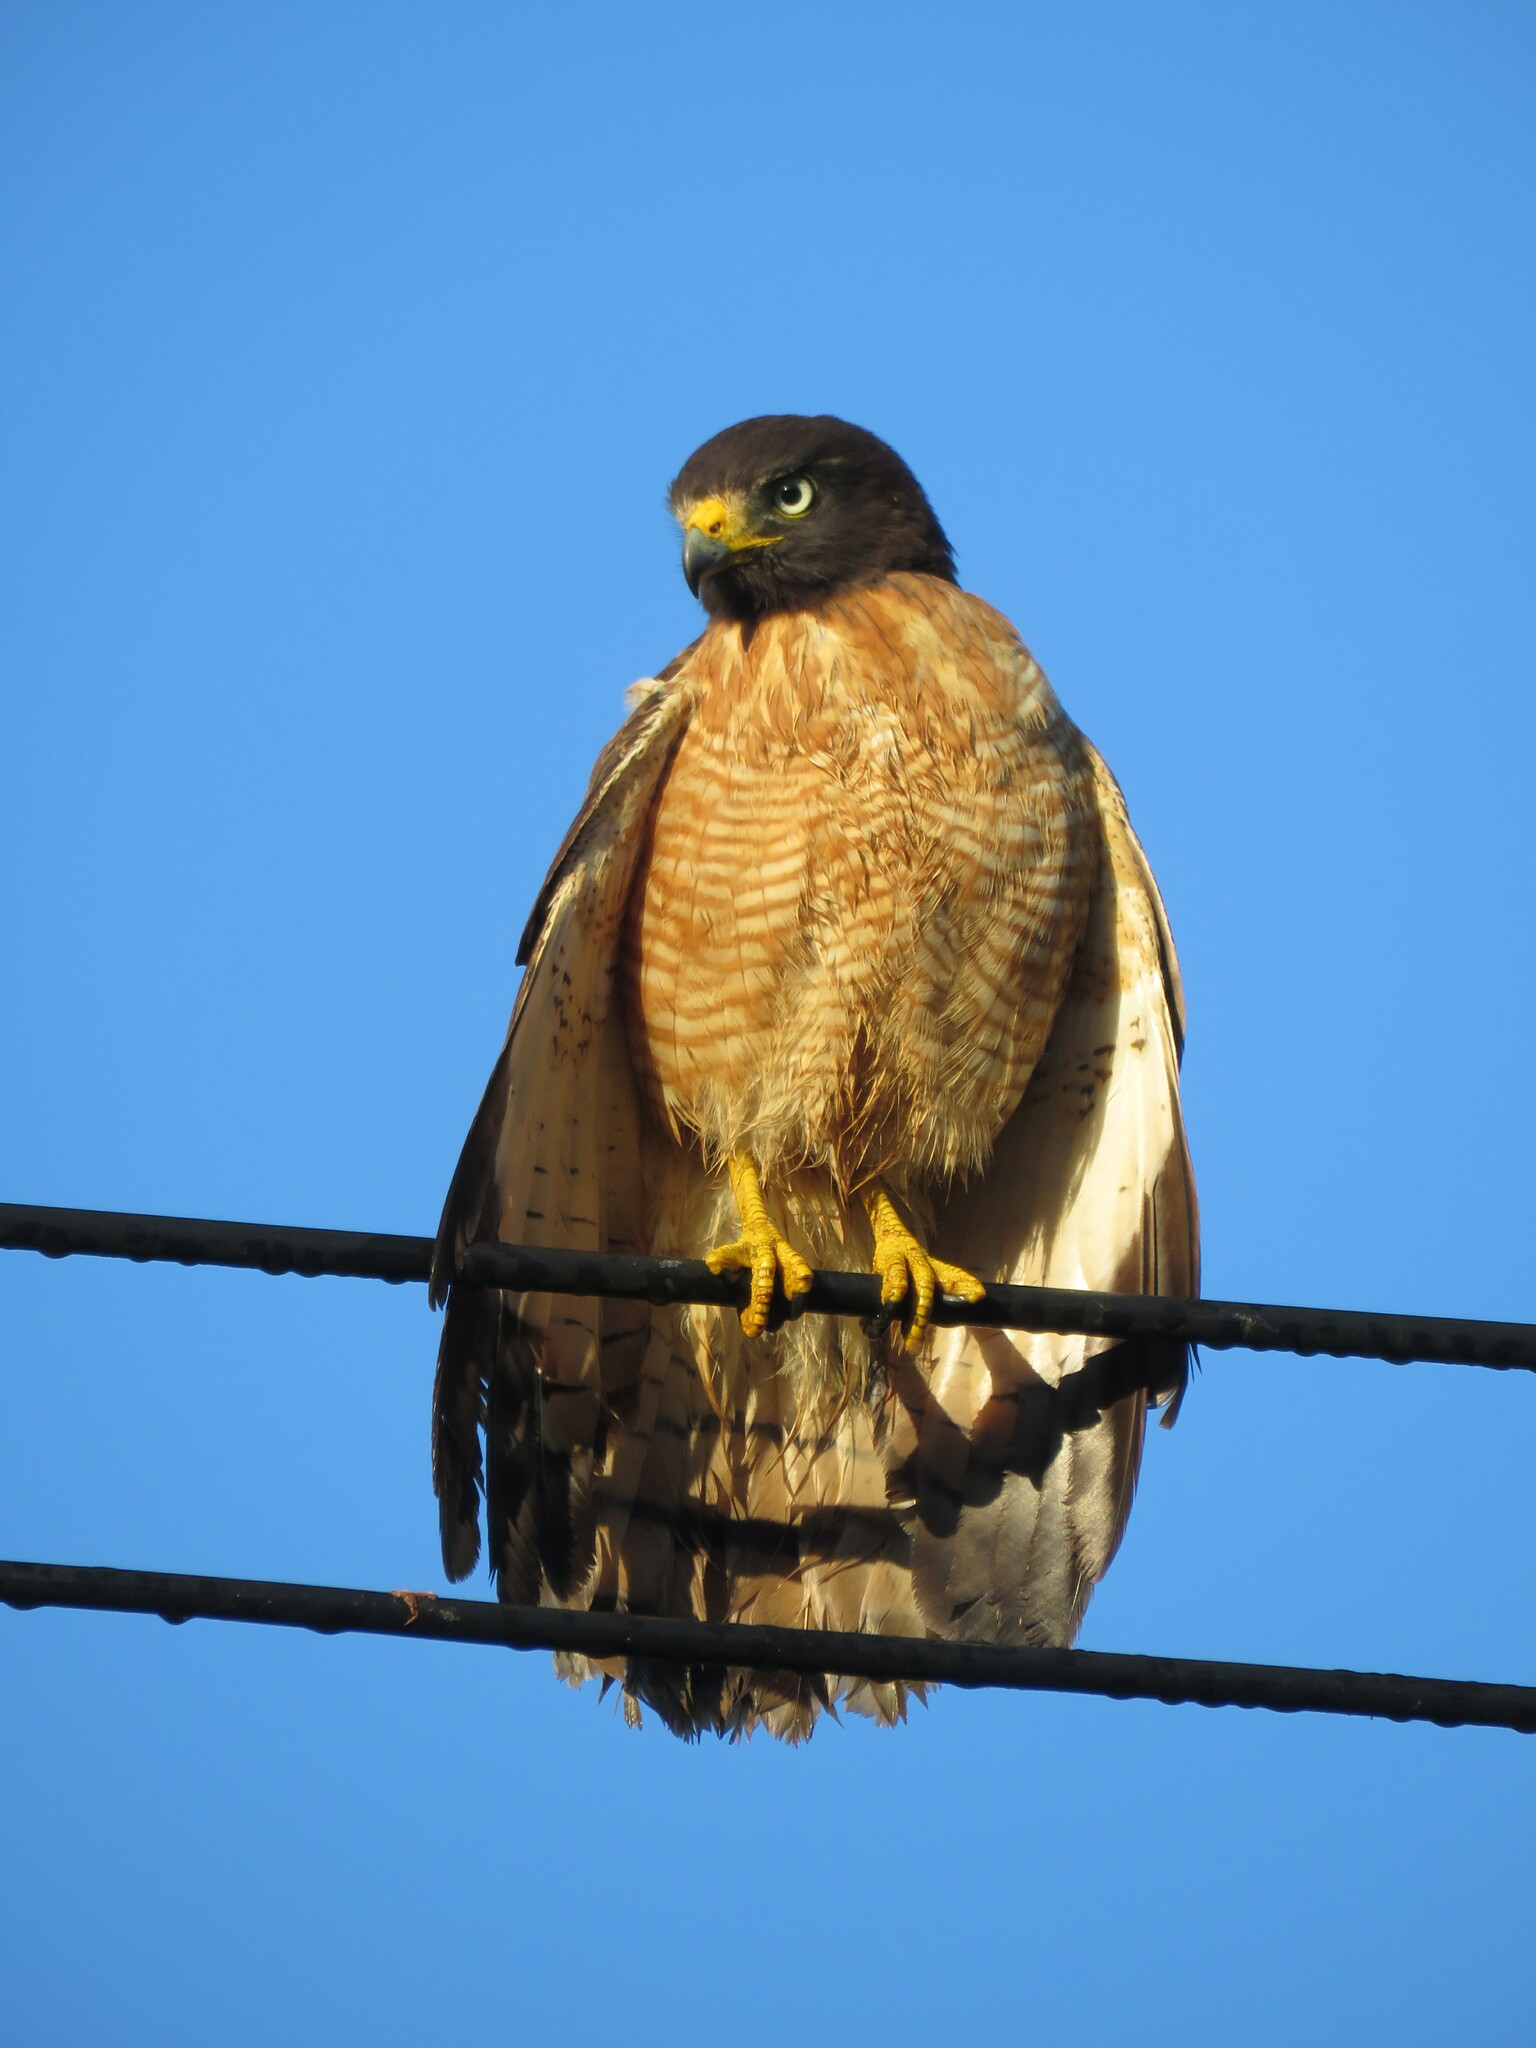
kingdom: Animalia
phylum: Chordata
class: Aves
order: Accipitriformes
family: Accipitridae
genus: Rupornis
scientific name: Rupornis magnirostris
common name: Roadside hawk
